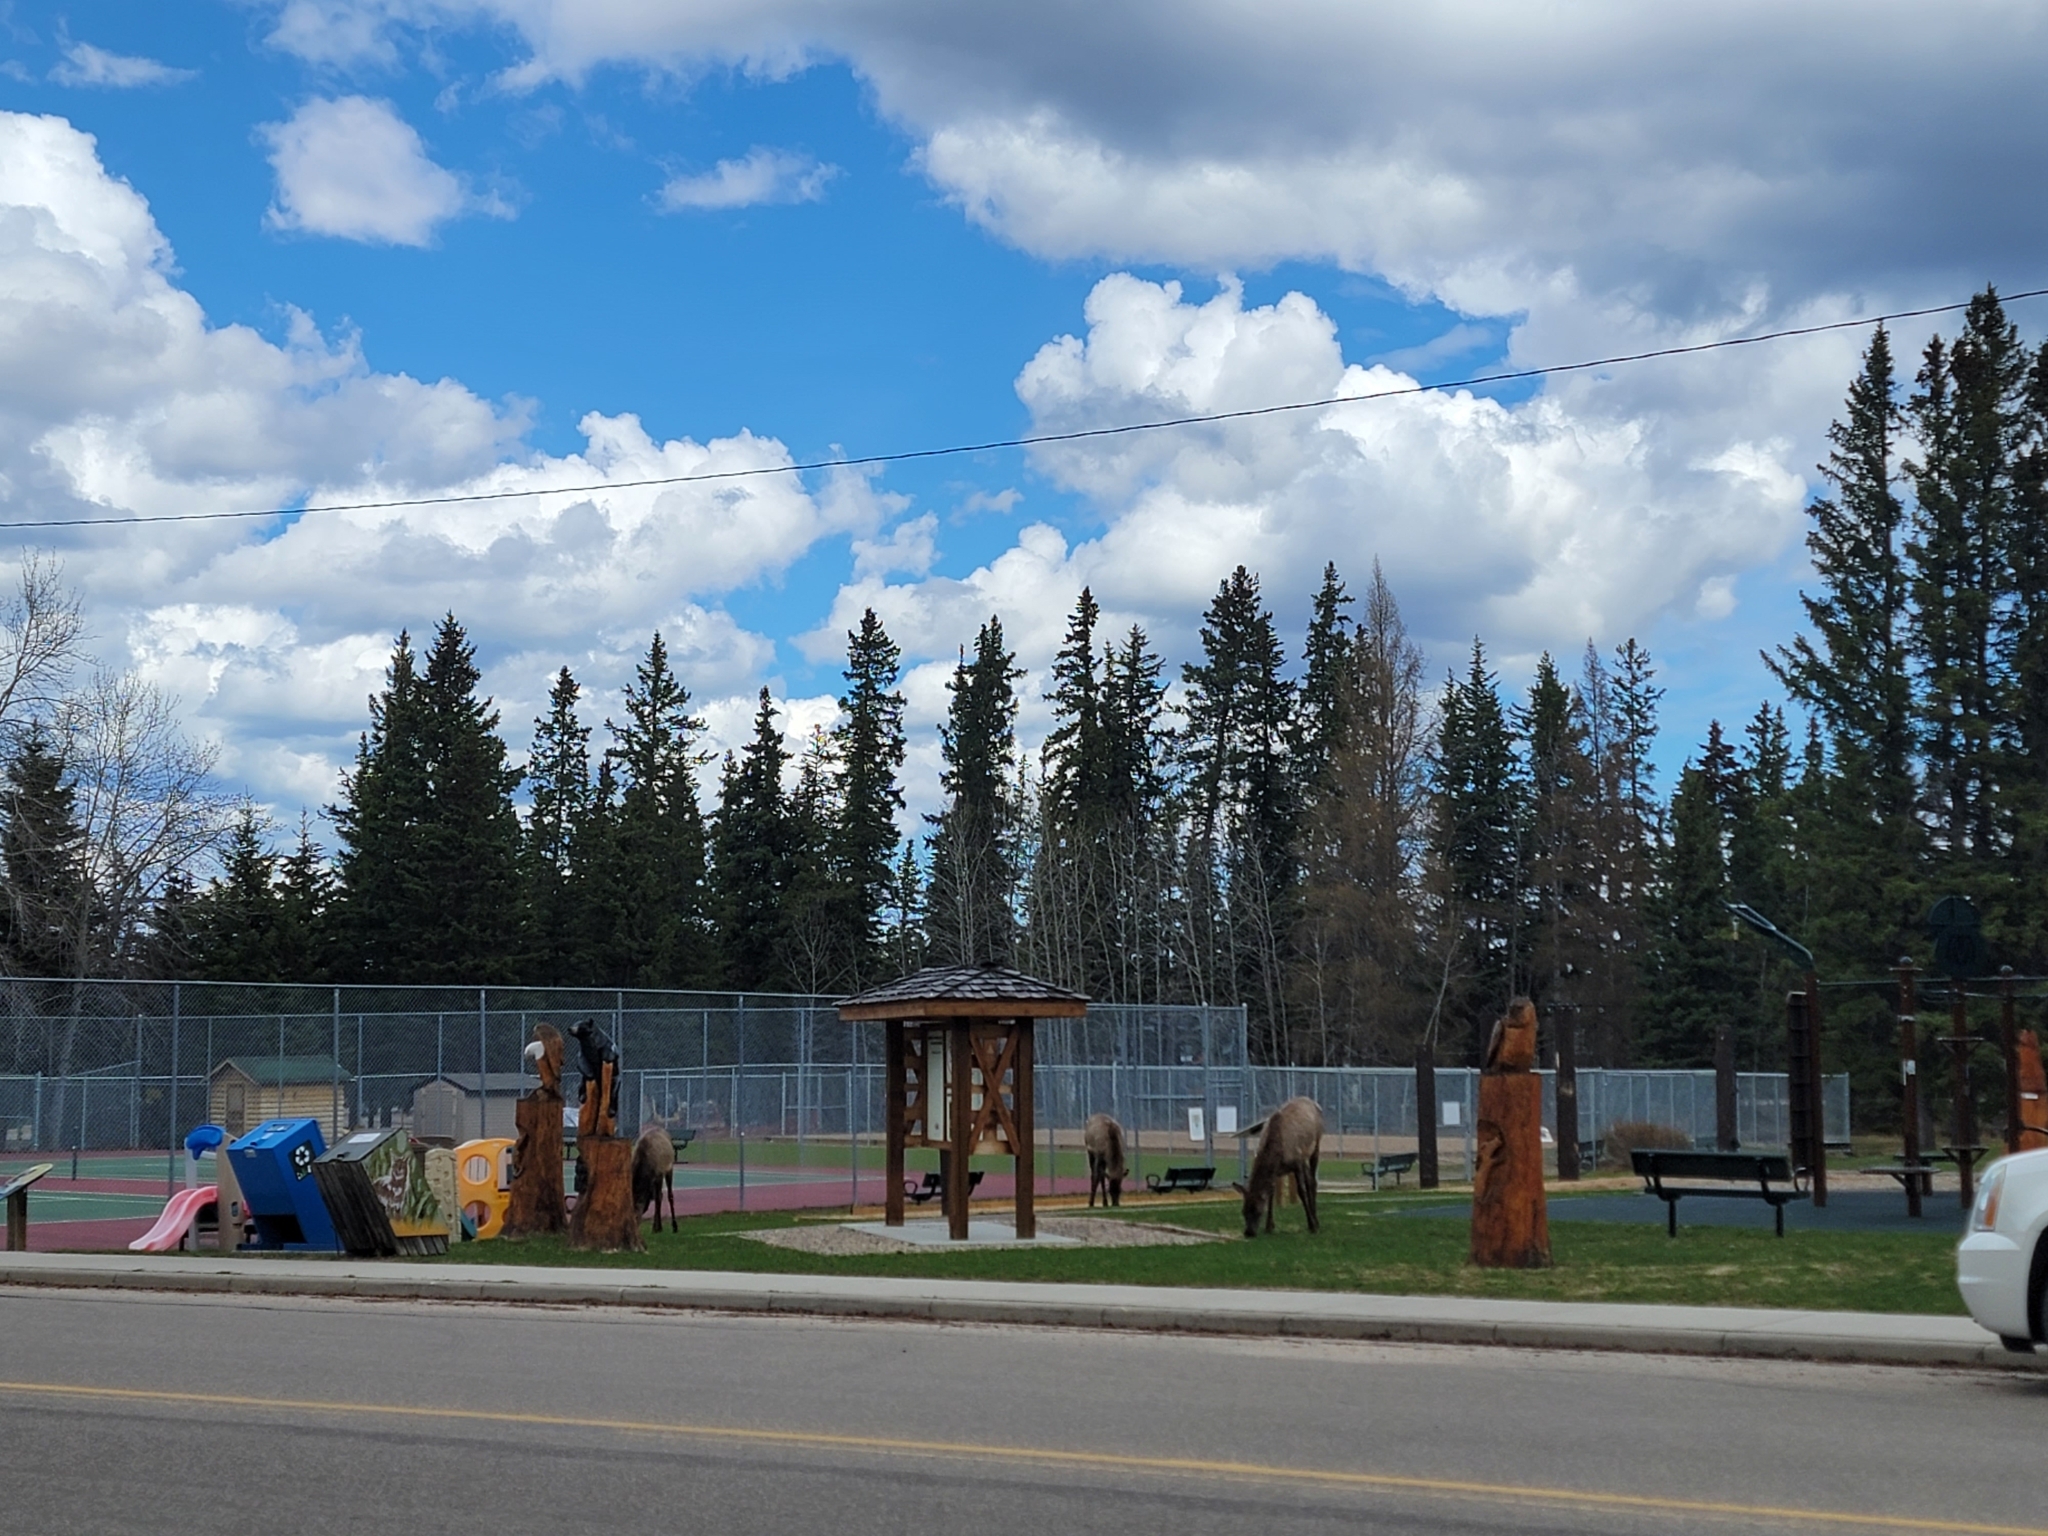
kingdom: Animalia
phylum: Chordata
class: Mammalia
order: Artiodactyla
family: Cervidae
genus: Cervus
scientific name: Cervus elaphus
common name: Red deer
